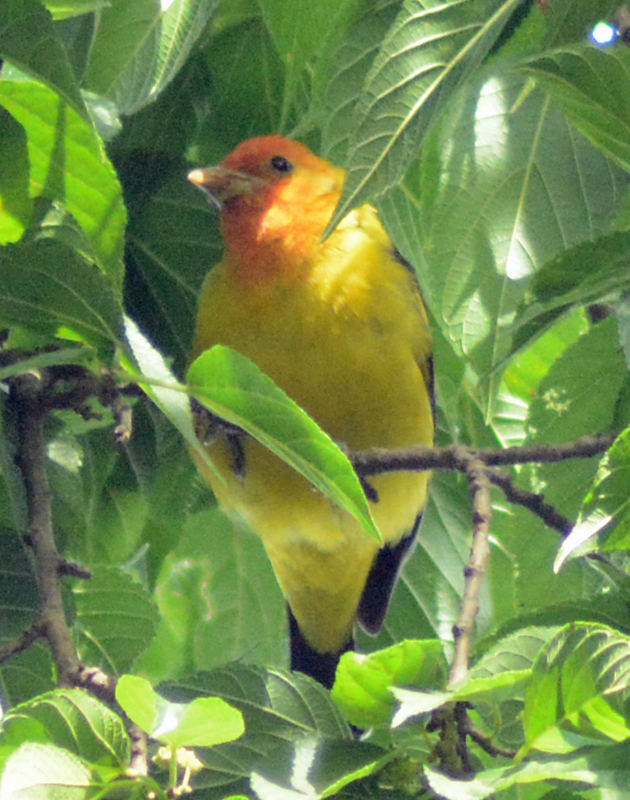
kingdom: Animalia
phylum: Chordata
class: Aves
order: Passeriformes
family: Cardinalidae
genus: Piranga
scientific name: Piranga ludoviciana
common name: Western tanager
